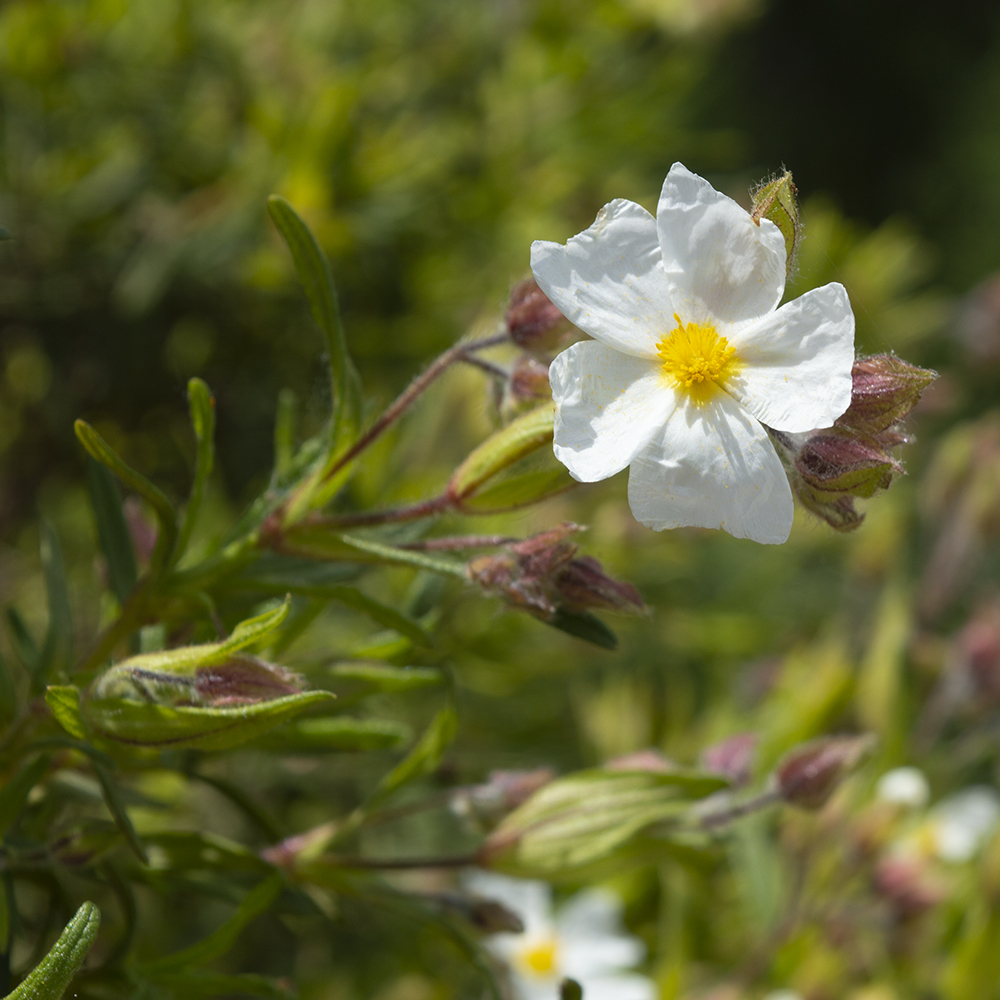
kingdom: Plantae
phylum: Tracheophyta
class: Magnoliopsida
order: Malvales
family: Cistaceae
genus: Cistus
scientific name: Cistus monspeliensis
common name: Montpelier cistus
